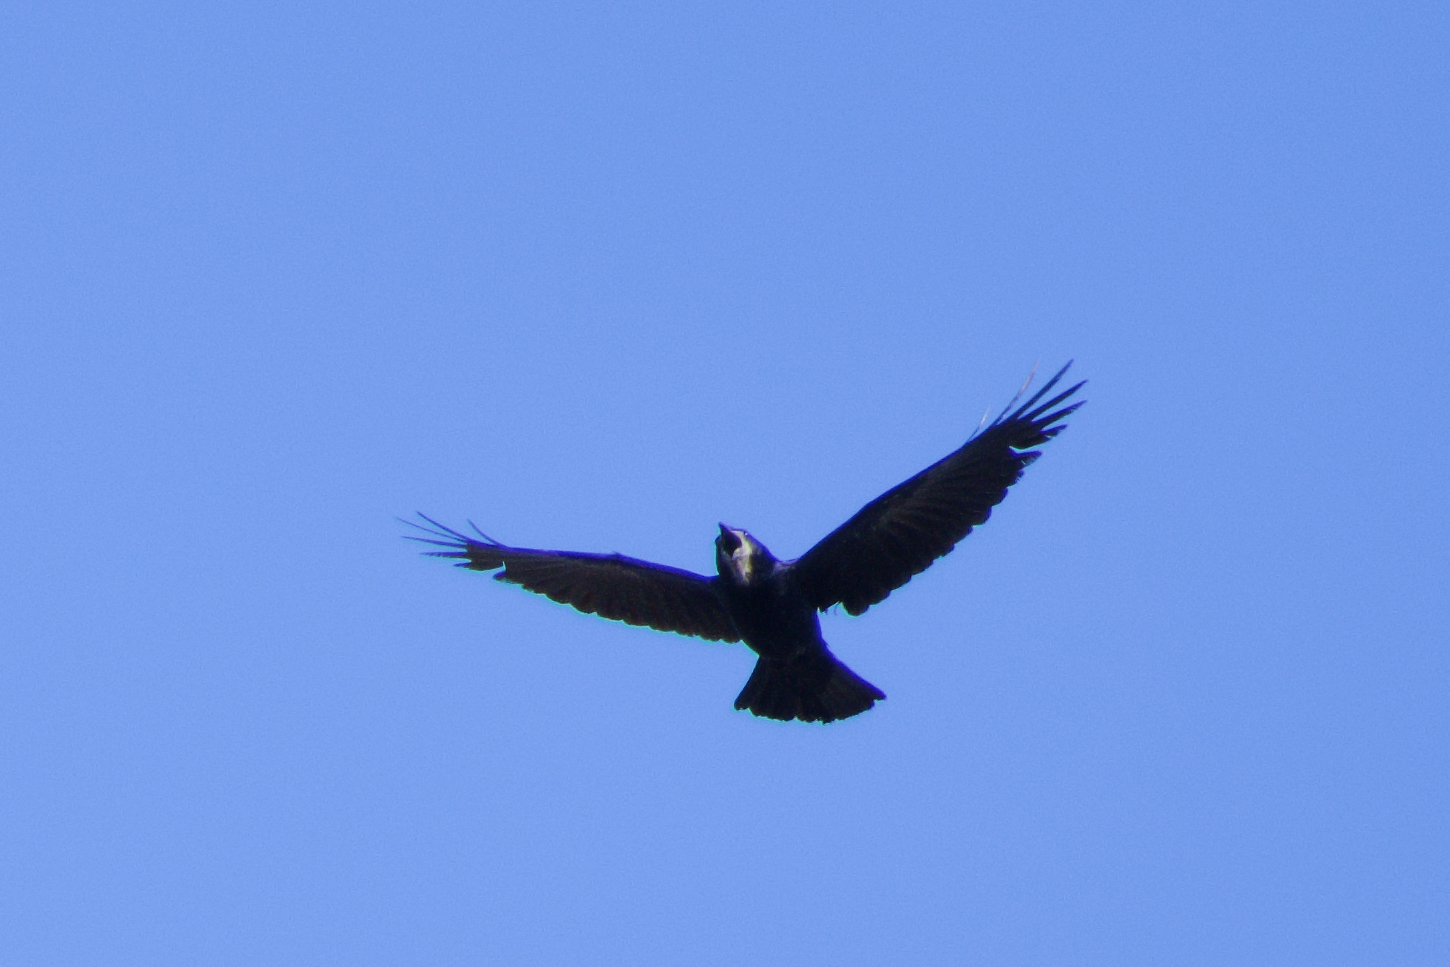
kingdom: Animalia
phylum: Chordata
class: Aves
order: Passeriformes
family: Corvidae
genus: Corvus
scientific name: Corvus frugilegus
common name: Rook
